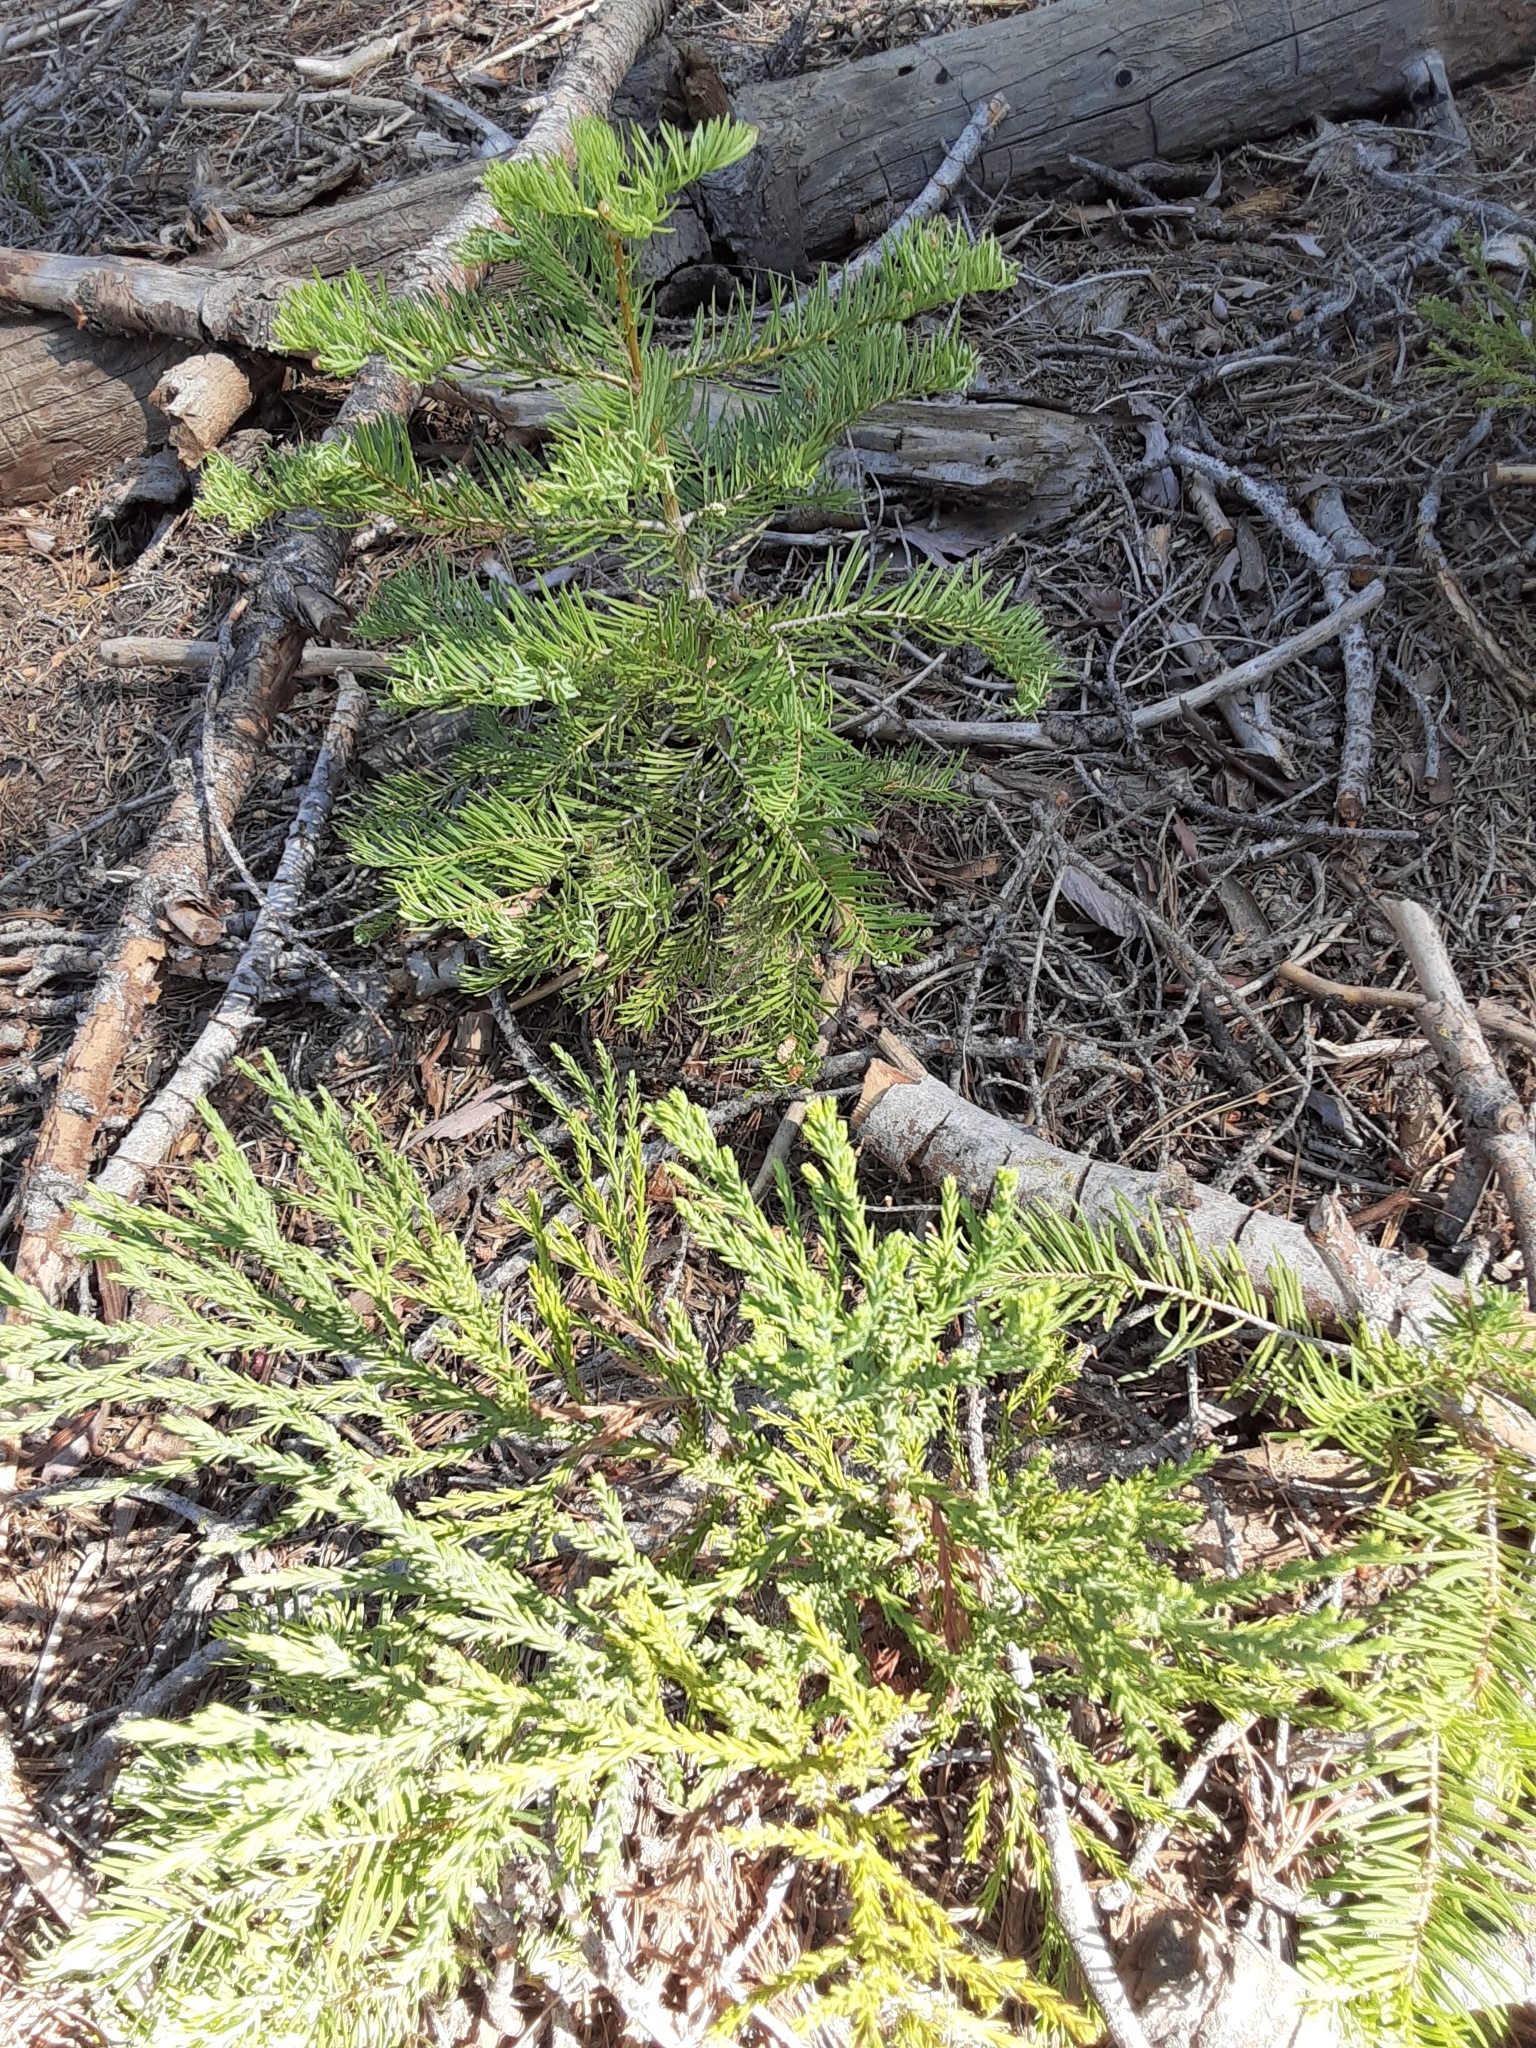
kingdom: Plantae
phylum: Tracheophyta
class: Pinopsida
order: Pinales
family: Cupressaceae
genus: Sequoiadendron
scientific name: Sequoiadendron giganteum
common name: Wellingtonia
